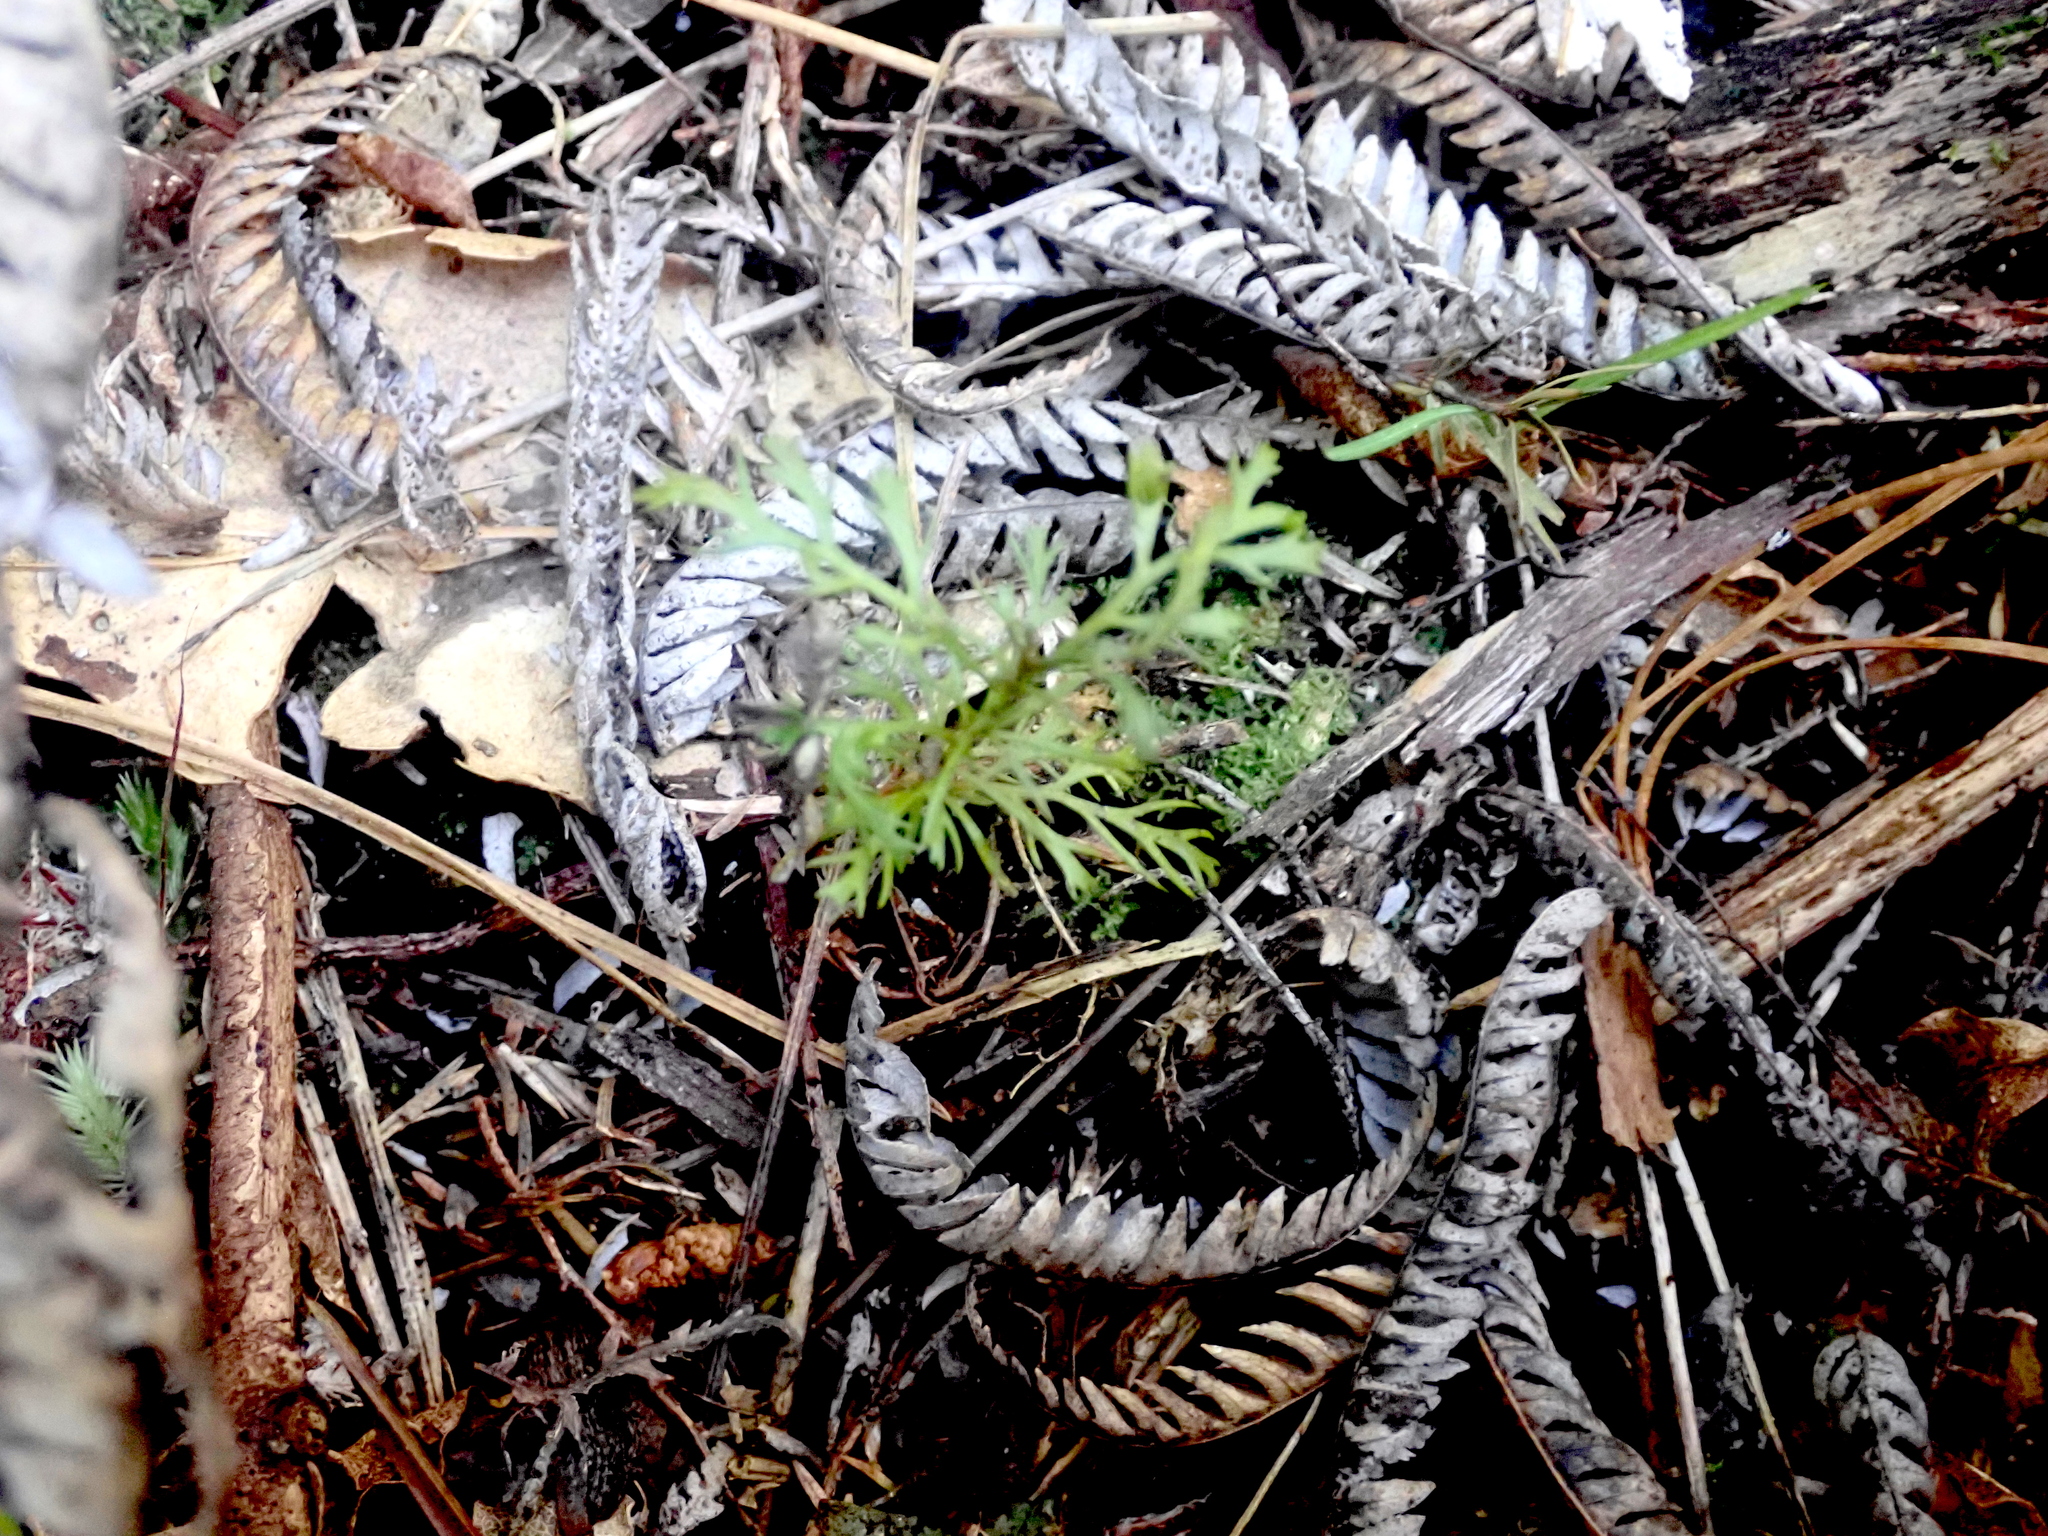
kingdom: Plantae
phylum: Tracheophyta
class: Pinopsida
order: Pinales
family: Phyllocladaceae
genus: Phyllocladus
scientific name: Phyllocladus trichomanoides
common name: Celery pine
